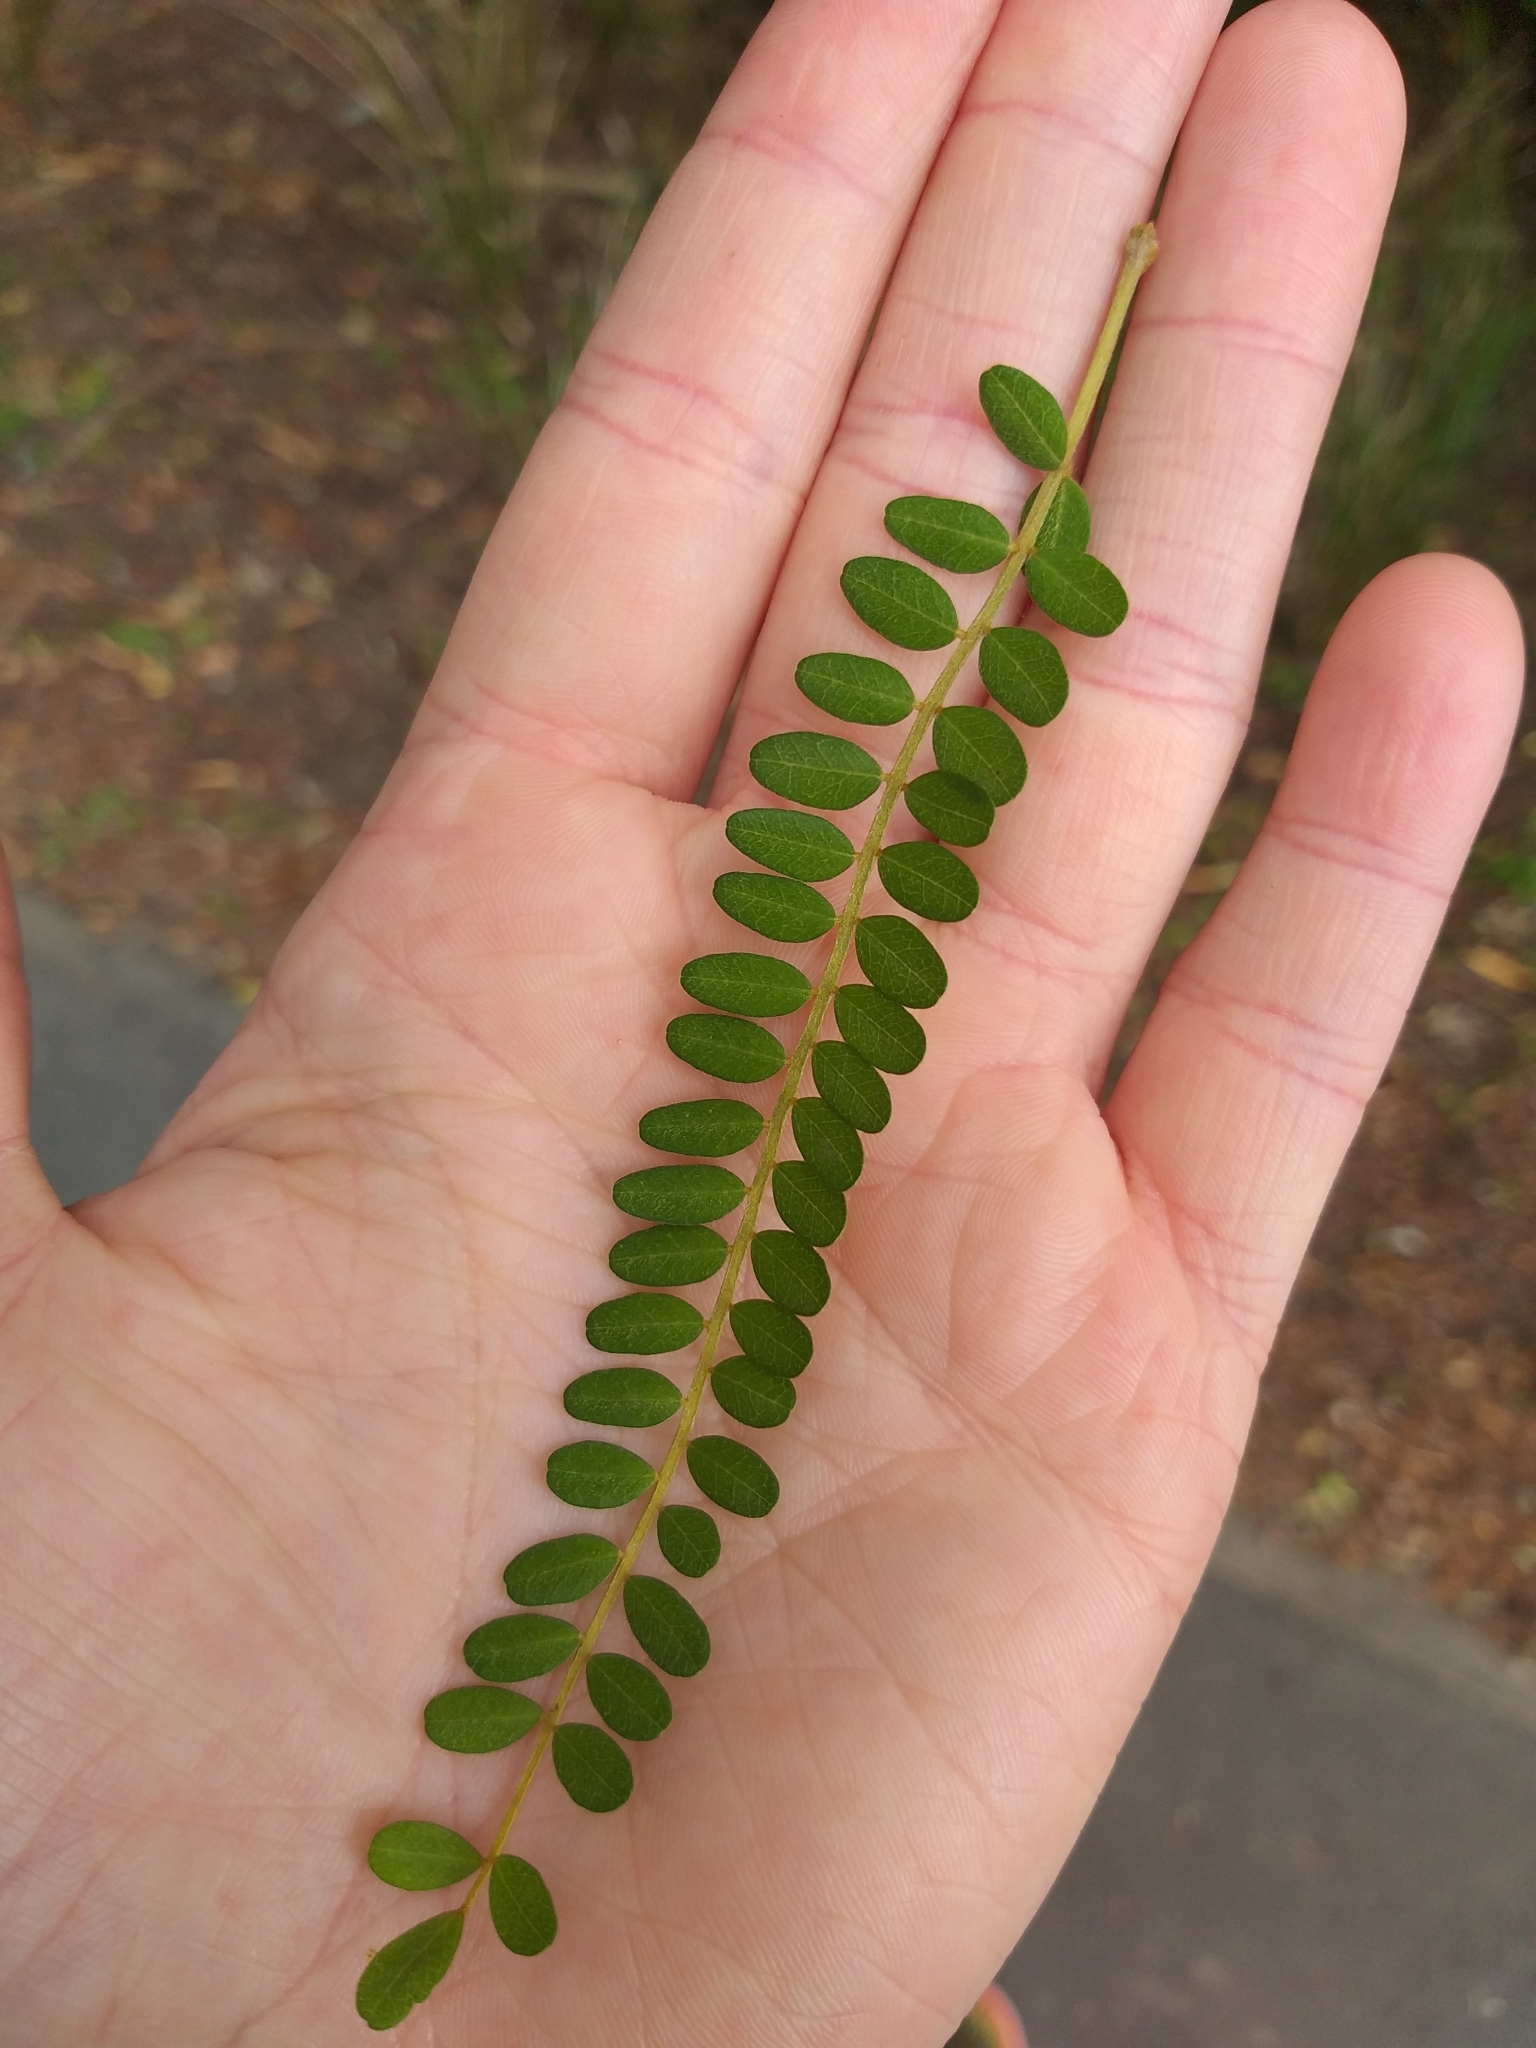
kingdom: Plantae
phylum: Tracheophyta
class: Magnoliopsida
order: Fabales
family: Fabaceae
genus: Sophora
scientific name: Sophora microphylla
